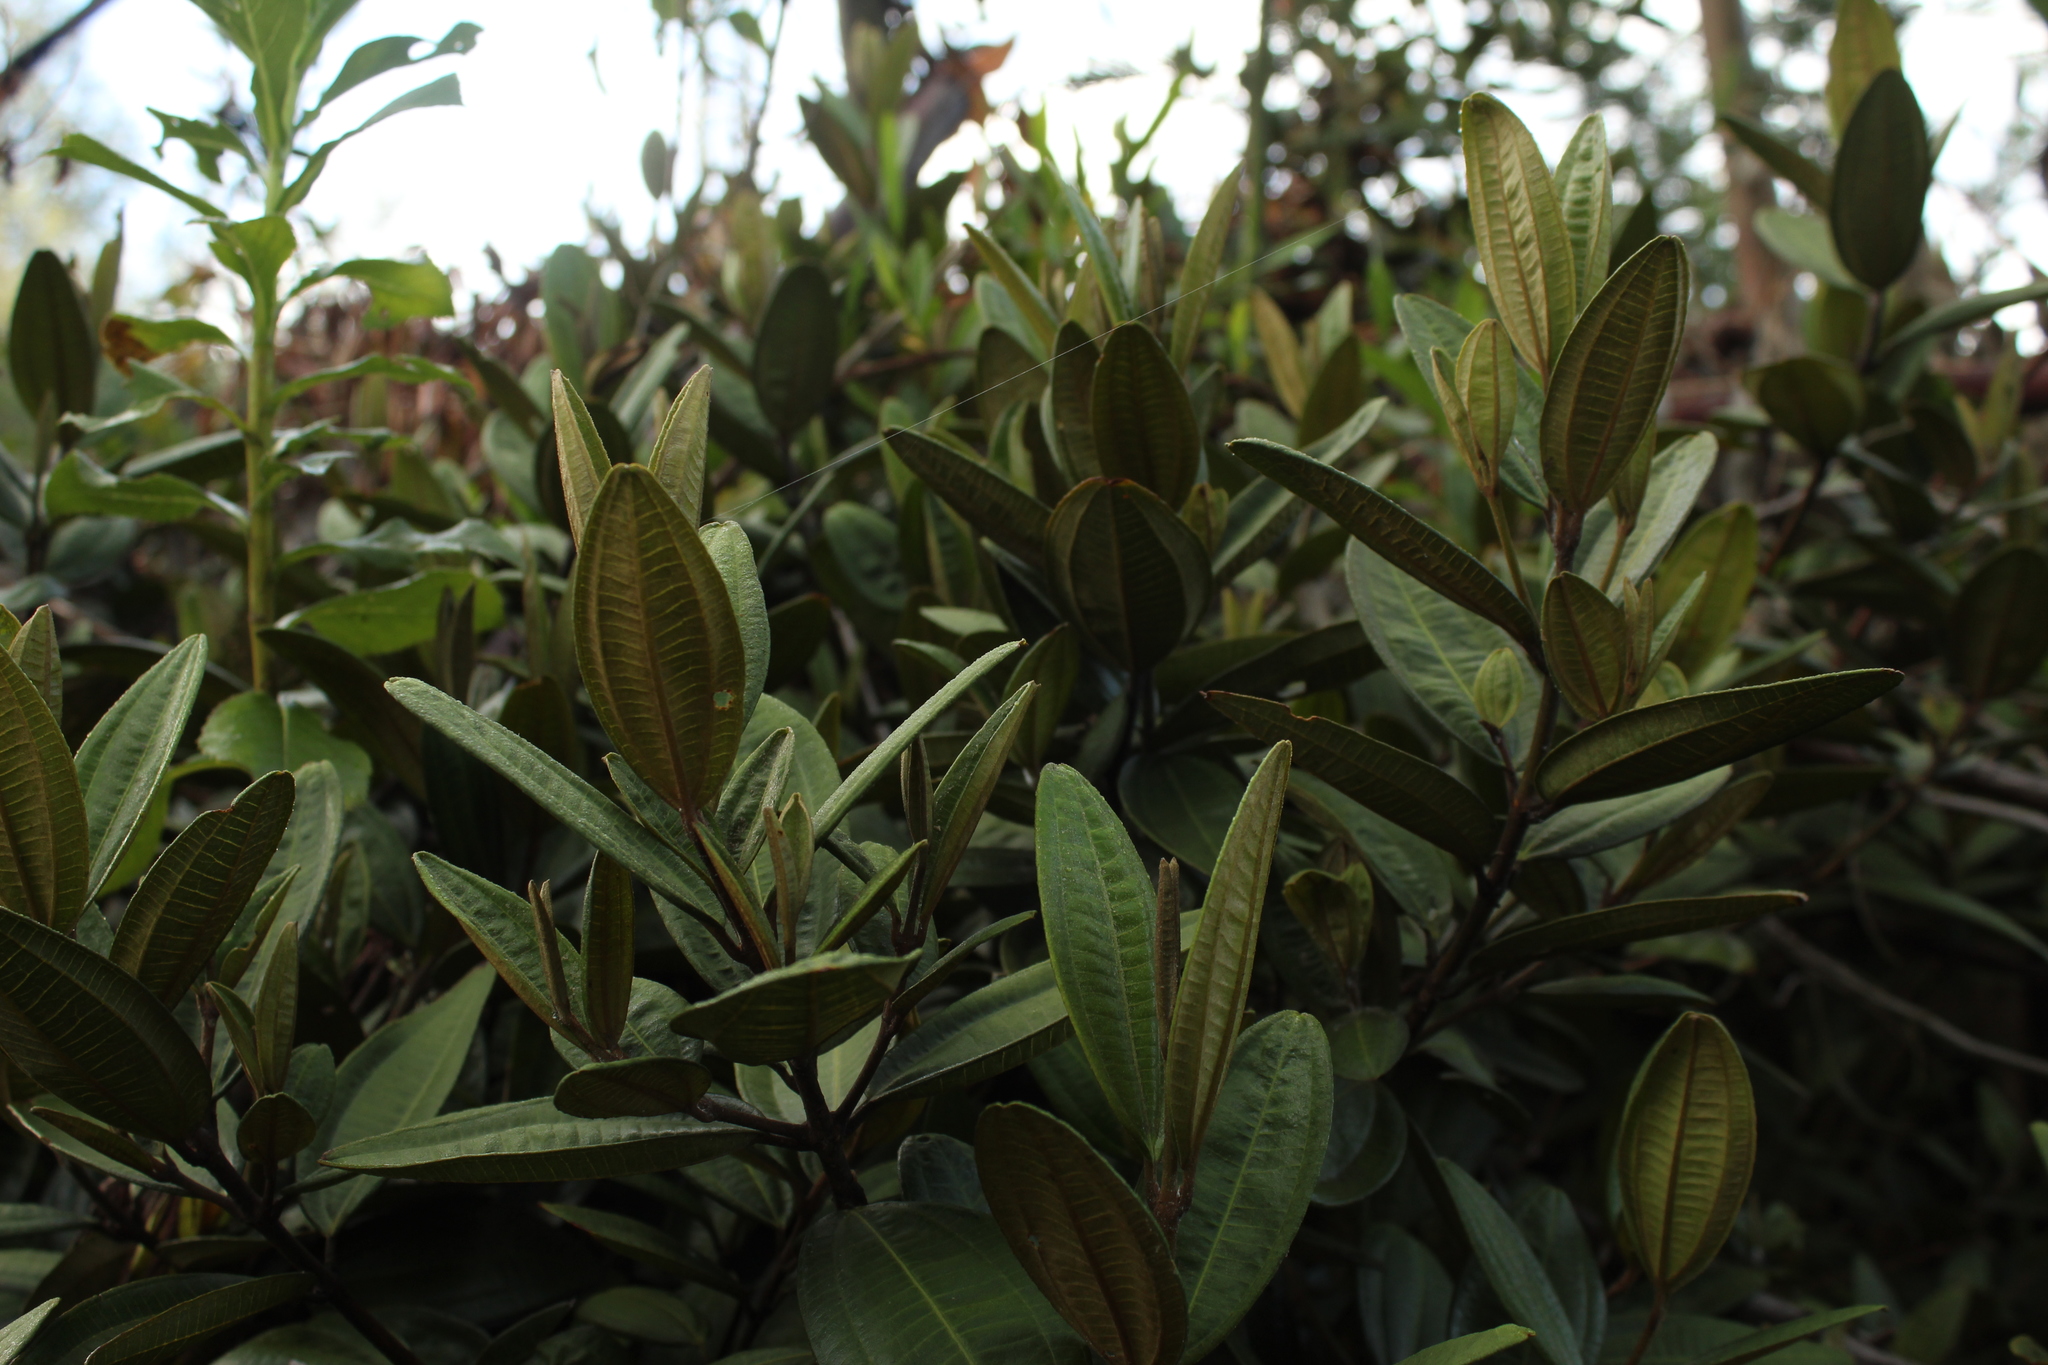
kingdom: Plantae
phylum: Tracheophyta
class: Magnoliopsida
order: Myrtales
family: Melastomataceae
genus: Miconia
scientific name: Miconia squamulosa
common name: Squamulose maya
